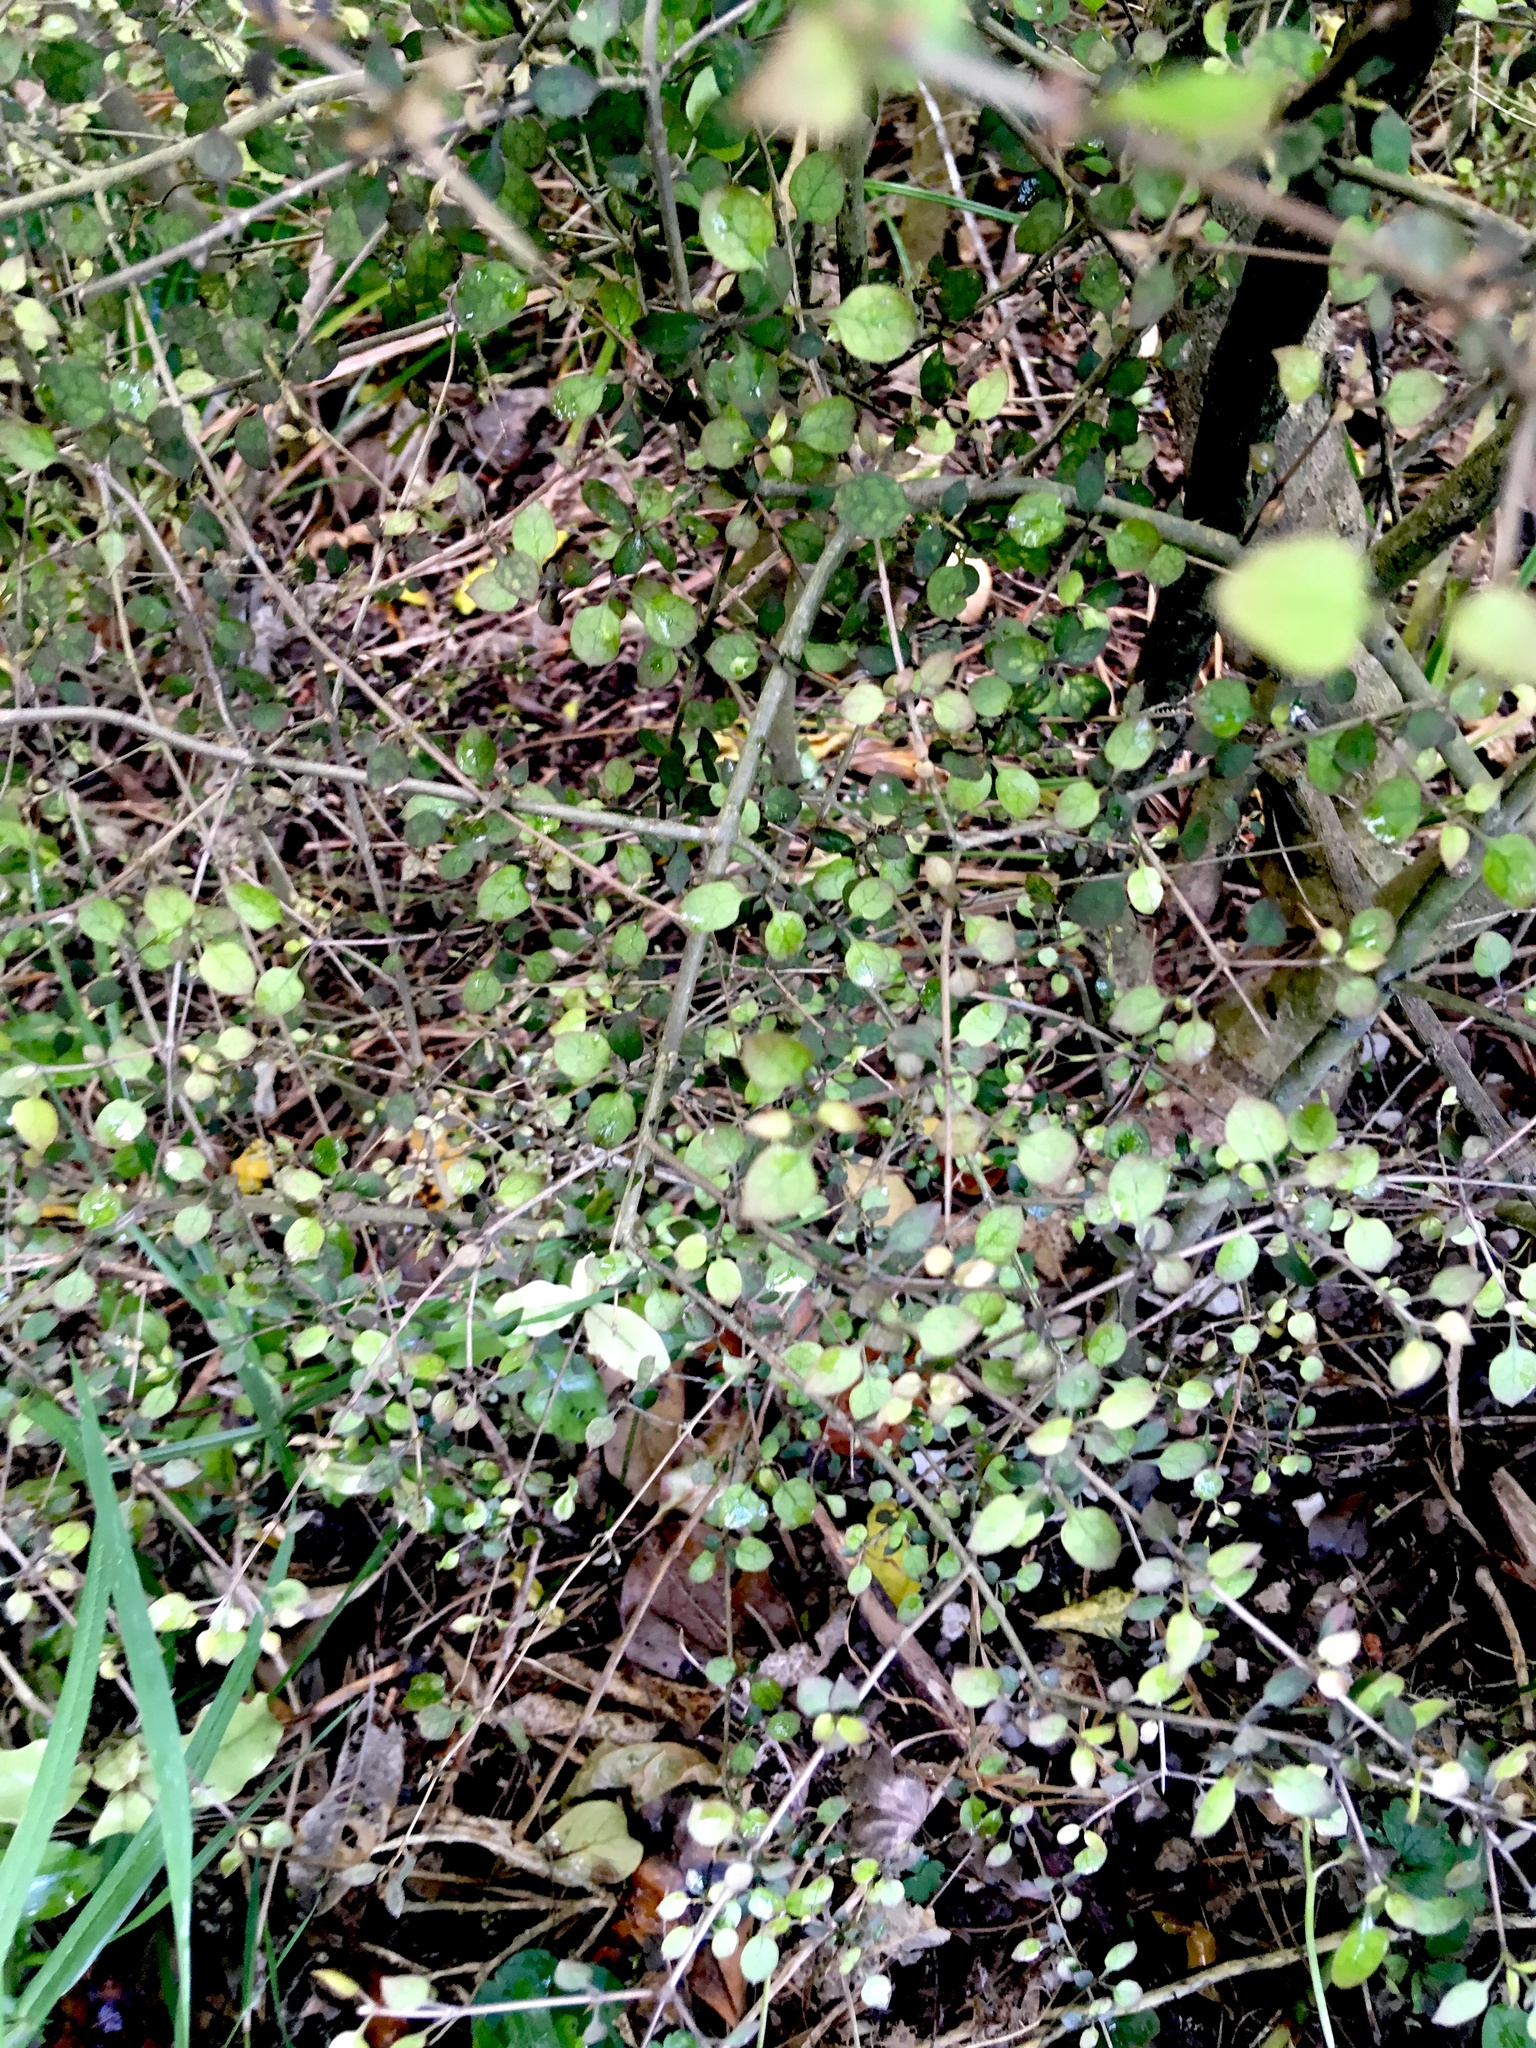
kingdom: Plantae
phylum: Tracheophyta
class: Magnoliopsida
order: Gentianales
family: Rubiaceae
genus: Coprosma
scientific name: Coprosma areolata
